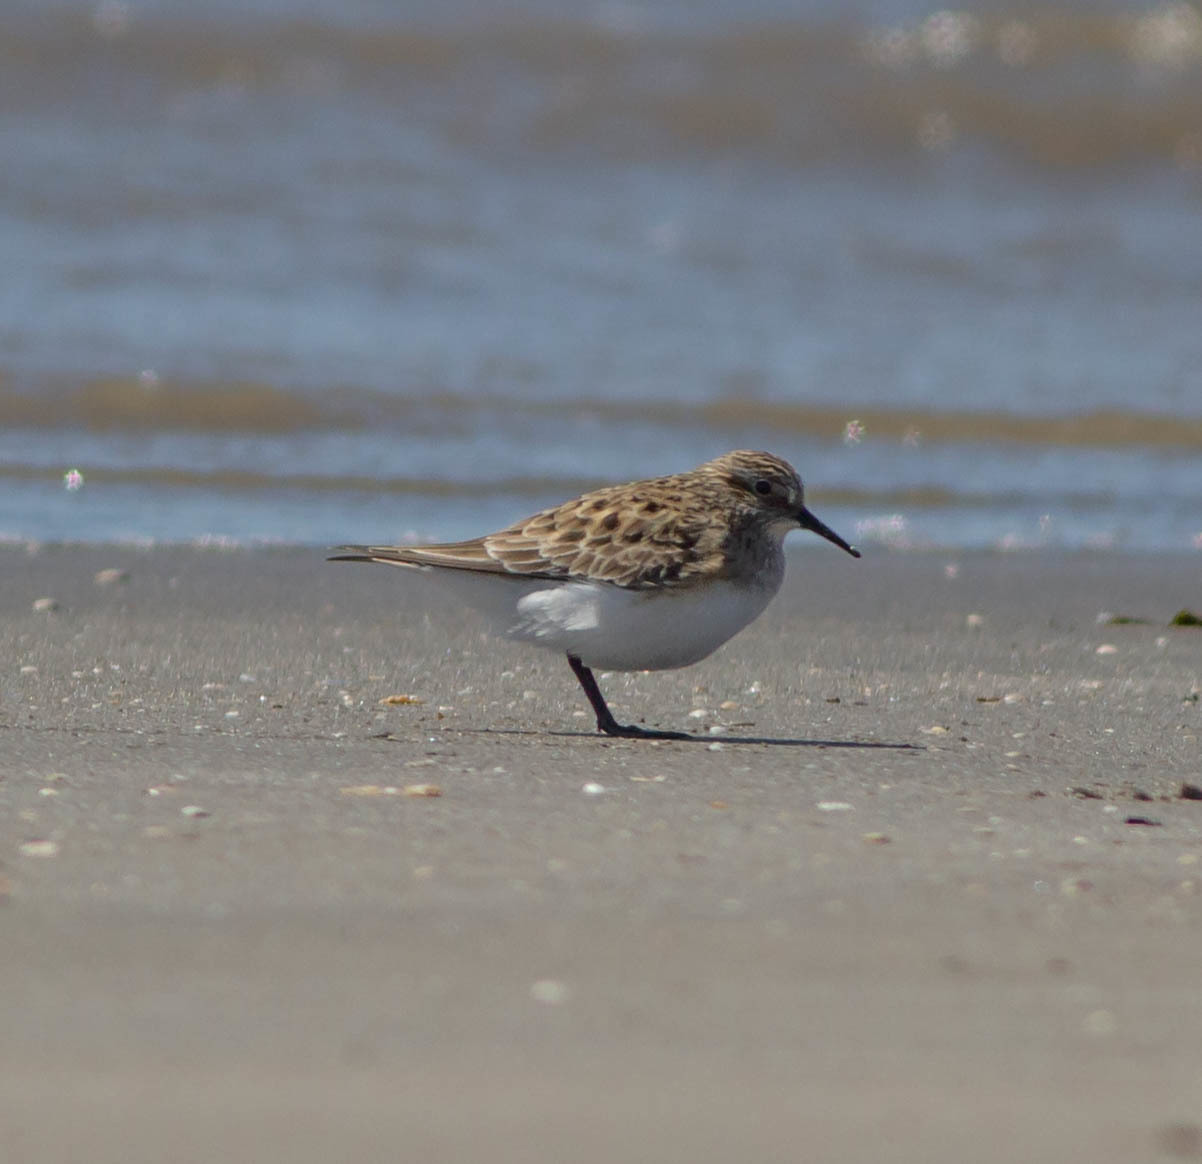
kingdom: Animalia
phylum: Chordata
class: Aves
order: Charadriiformes
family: Scolopacidae
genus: Calidris
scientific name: Calidris bairdii
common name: Baird's sandpiper
